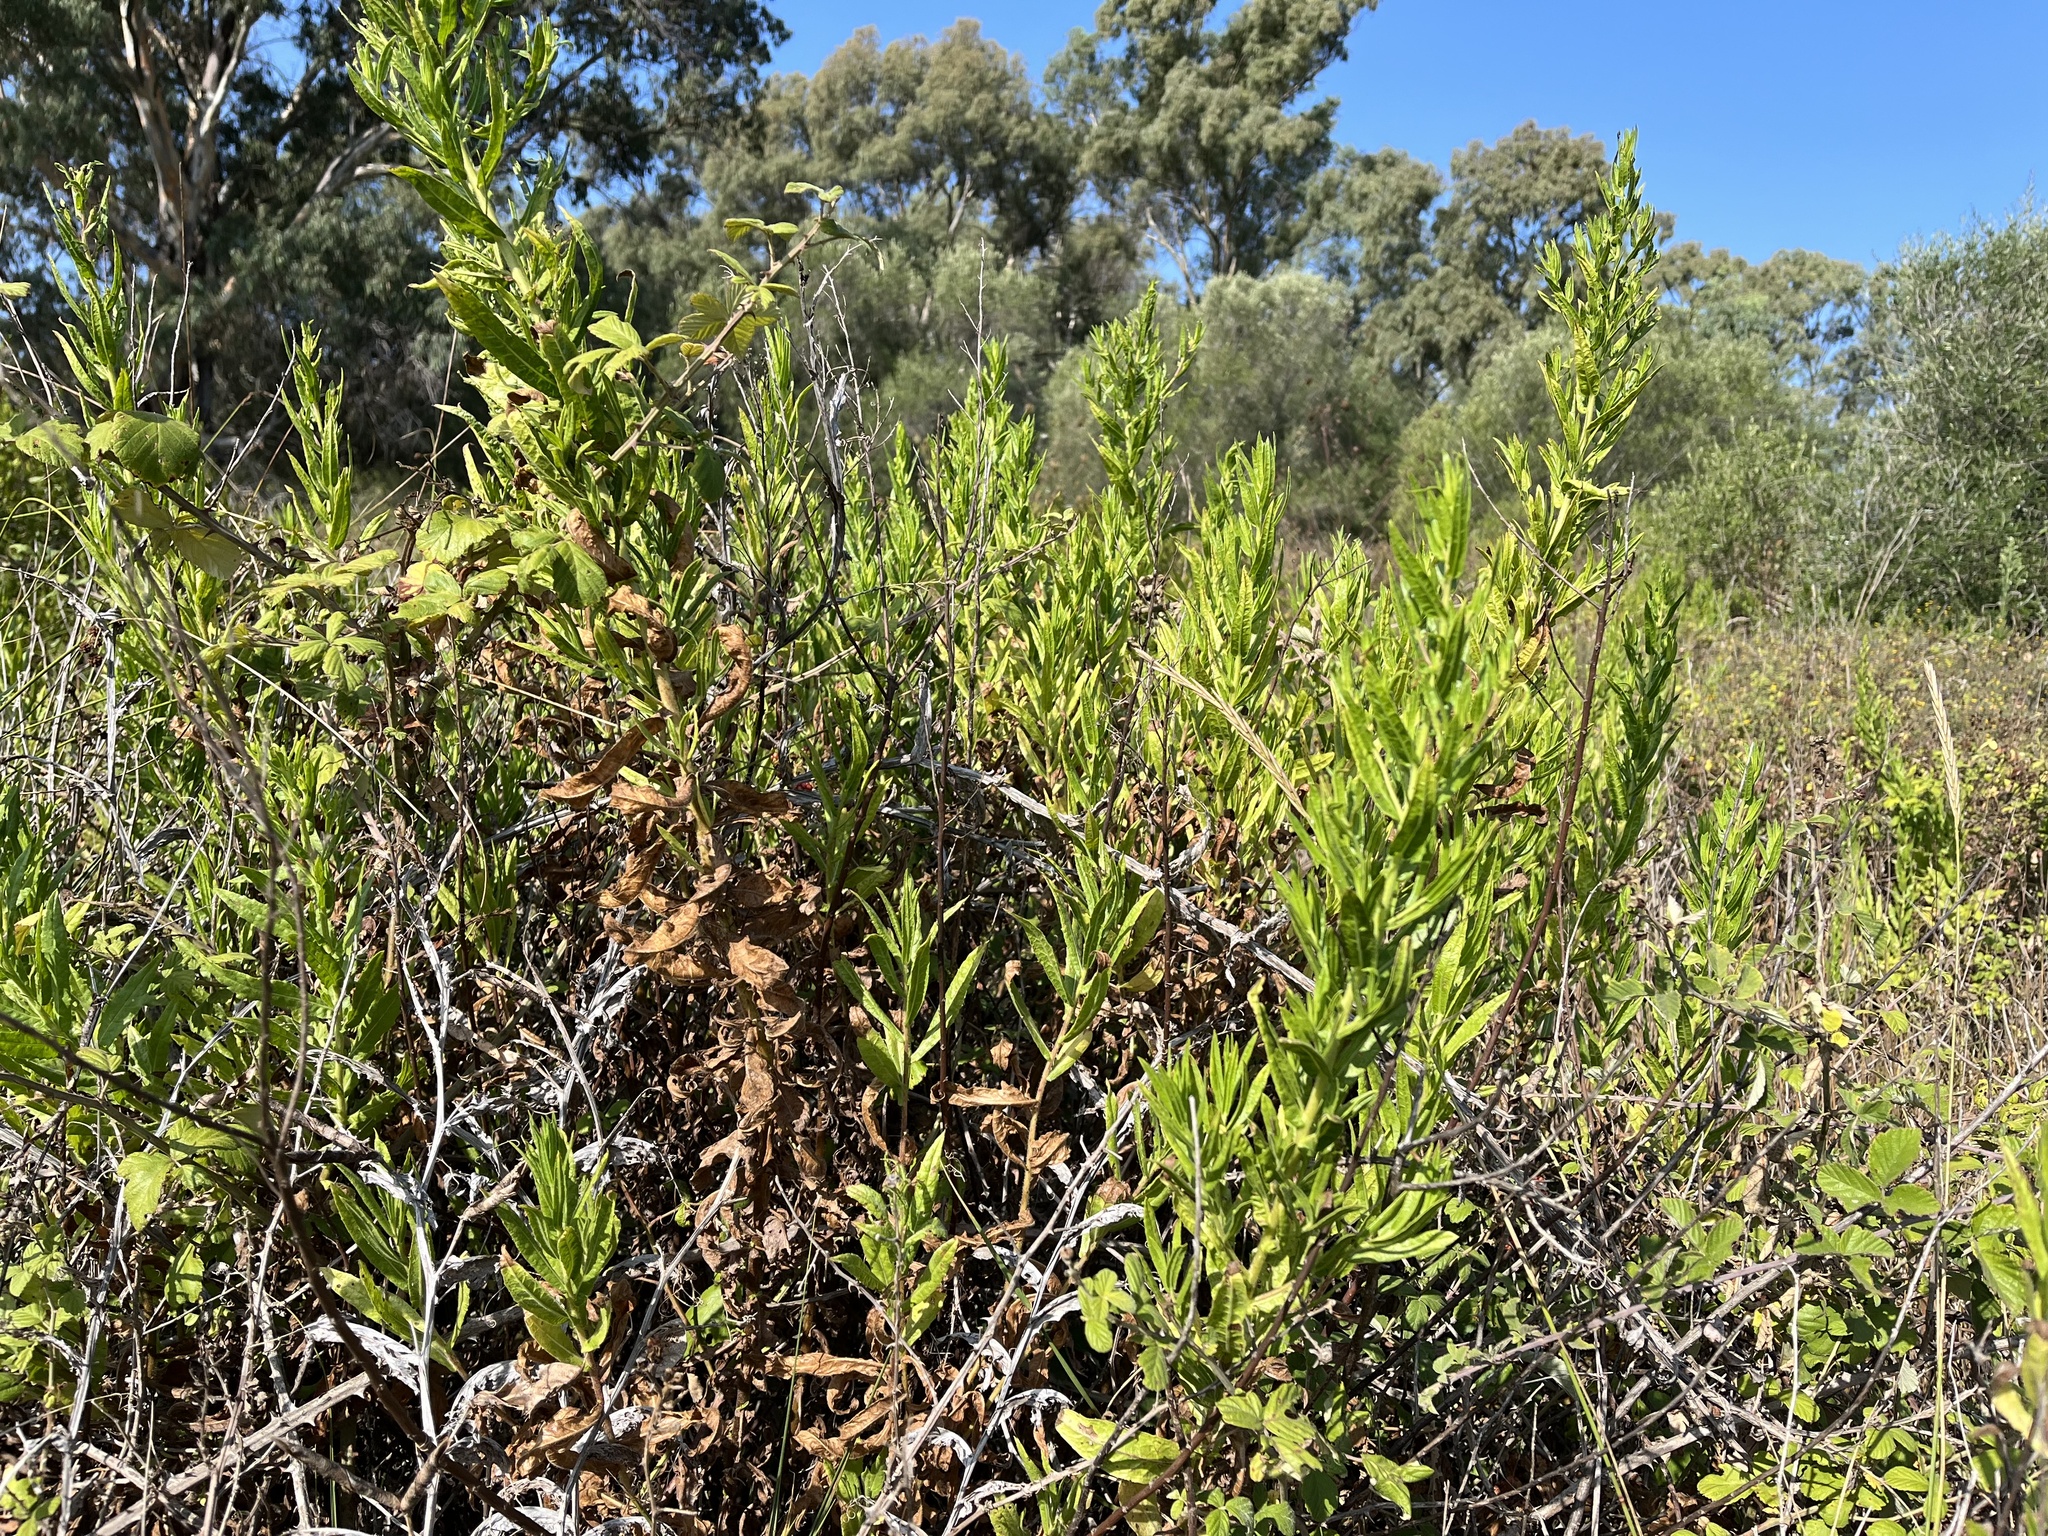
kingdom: Plantae
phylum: Tracheophyta
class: Magnoliopsida
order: Asterales
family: Asteraceae
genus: Dittrichia
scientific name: Dittrichia viscosa
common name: Woody fleabane
